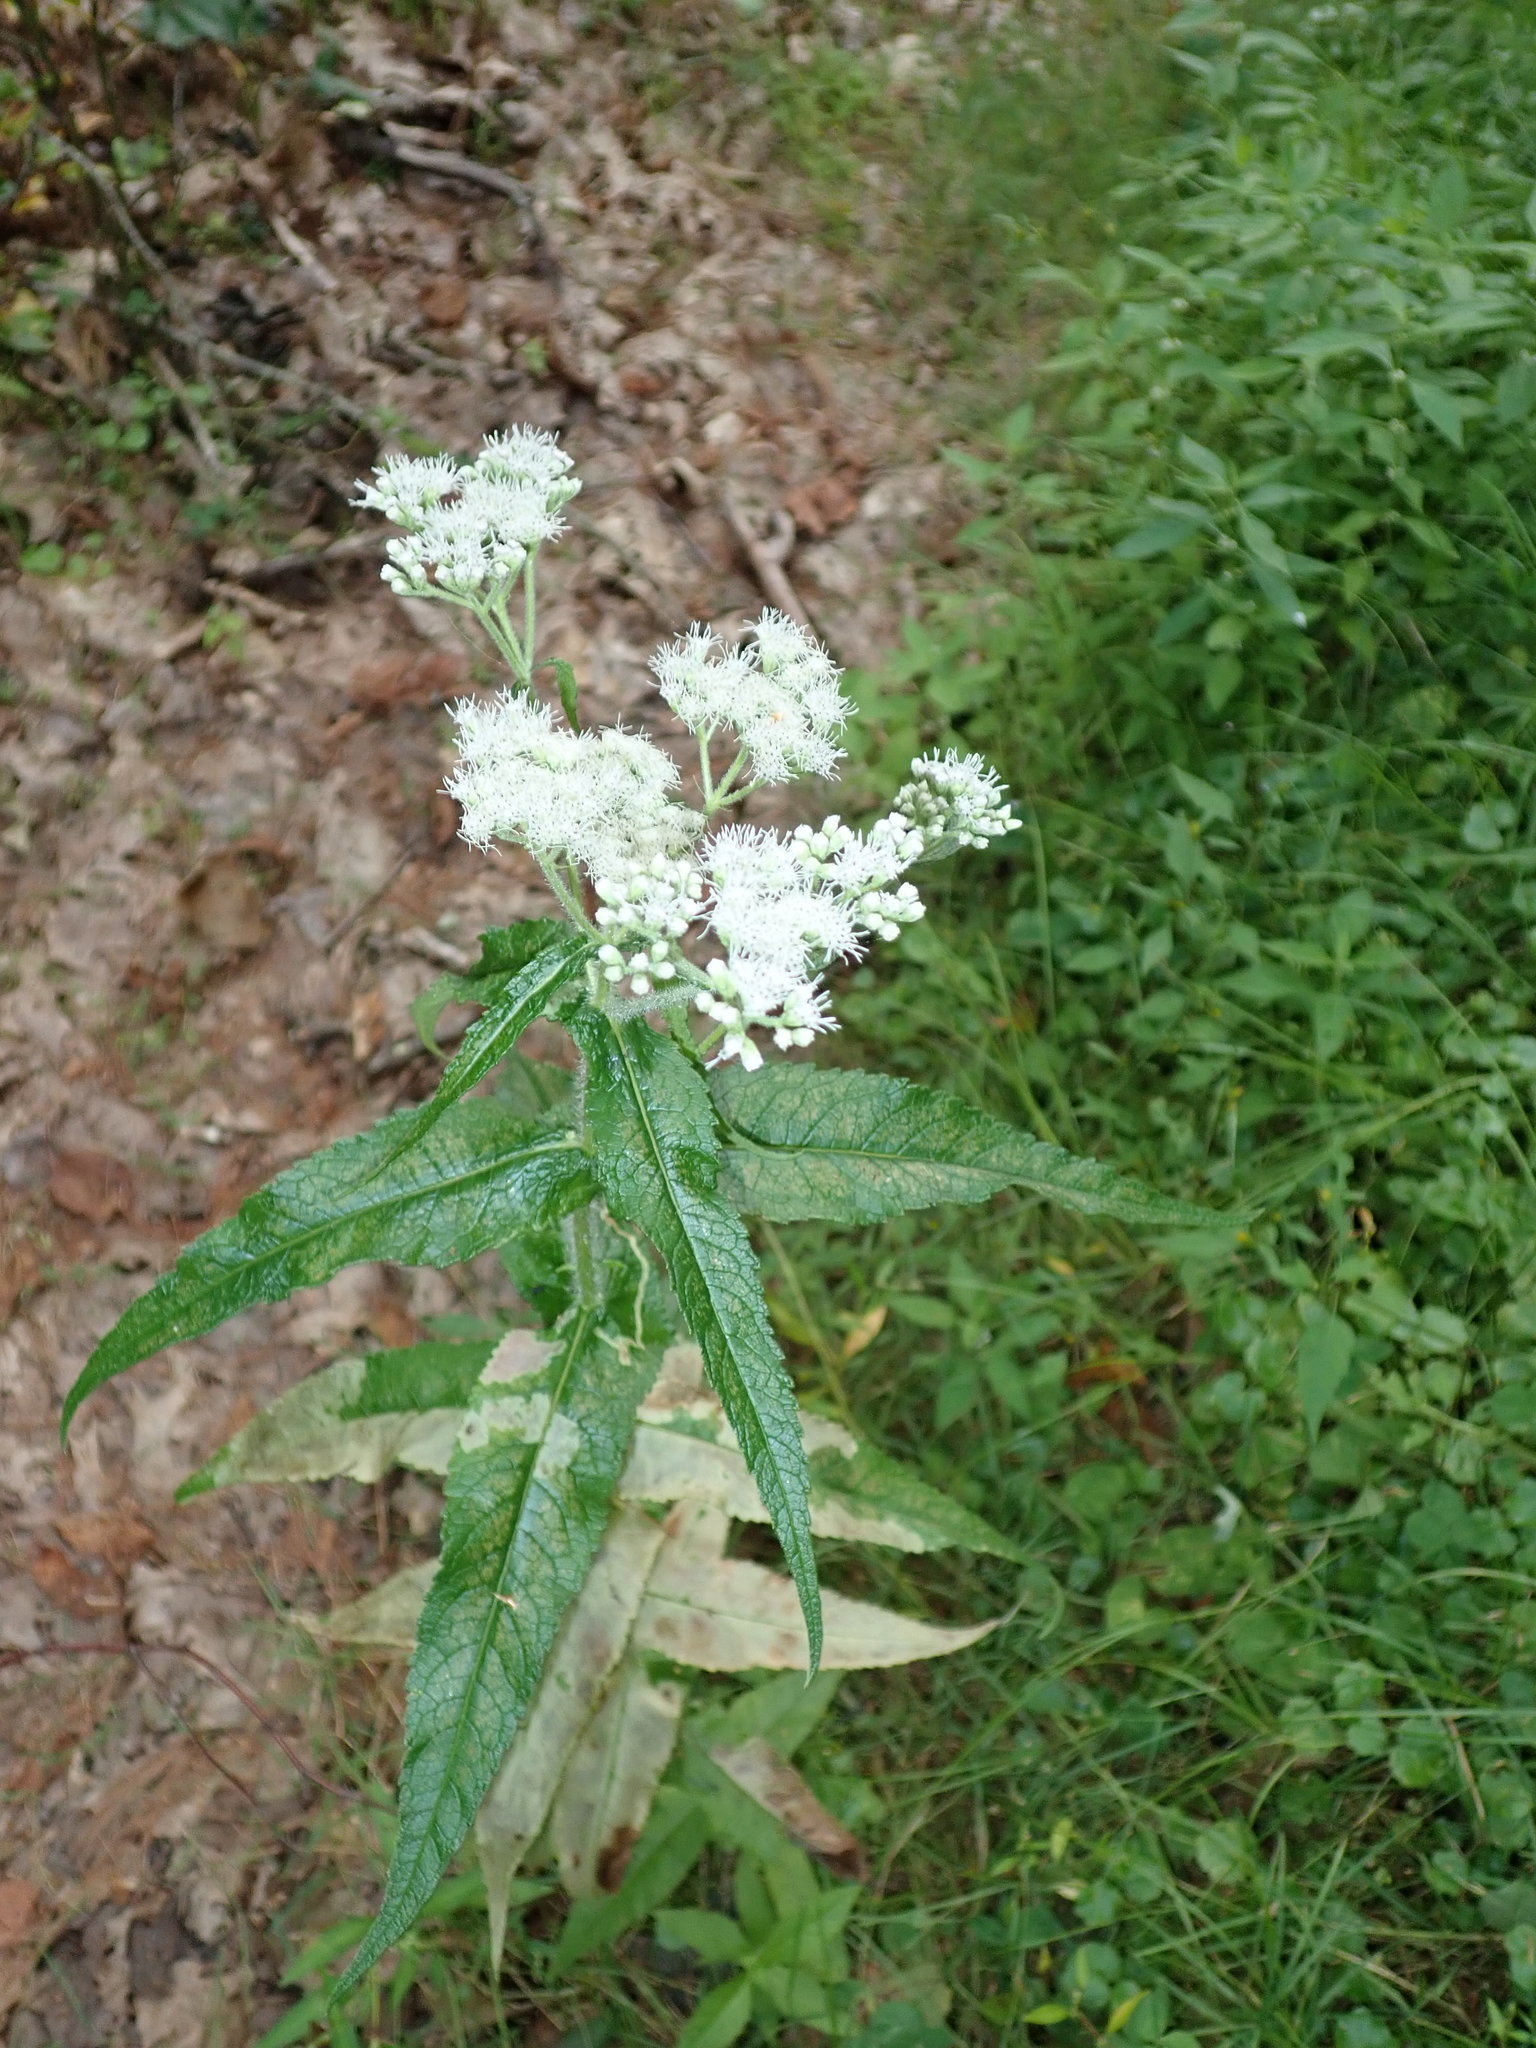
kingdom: Plantae
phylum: Tracheophyta
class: Magnoliopsida
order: Asterales
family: Asteraceae
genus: Eupatorium
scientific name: Eupatorium perfoliatum
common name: Boneset
